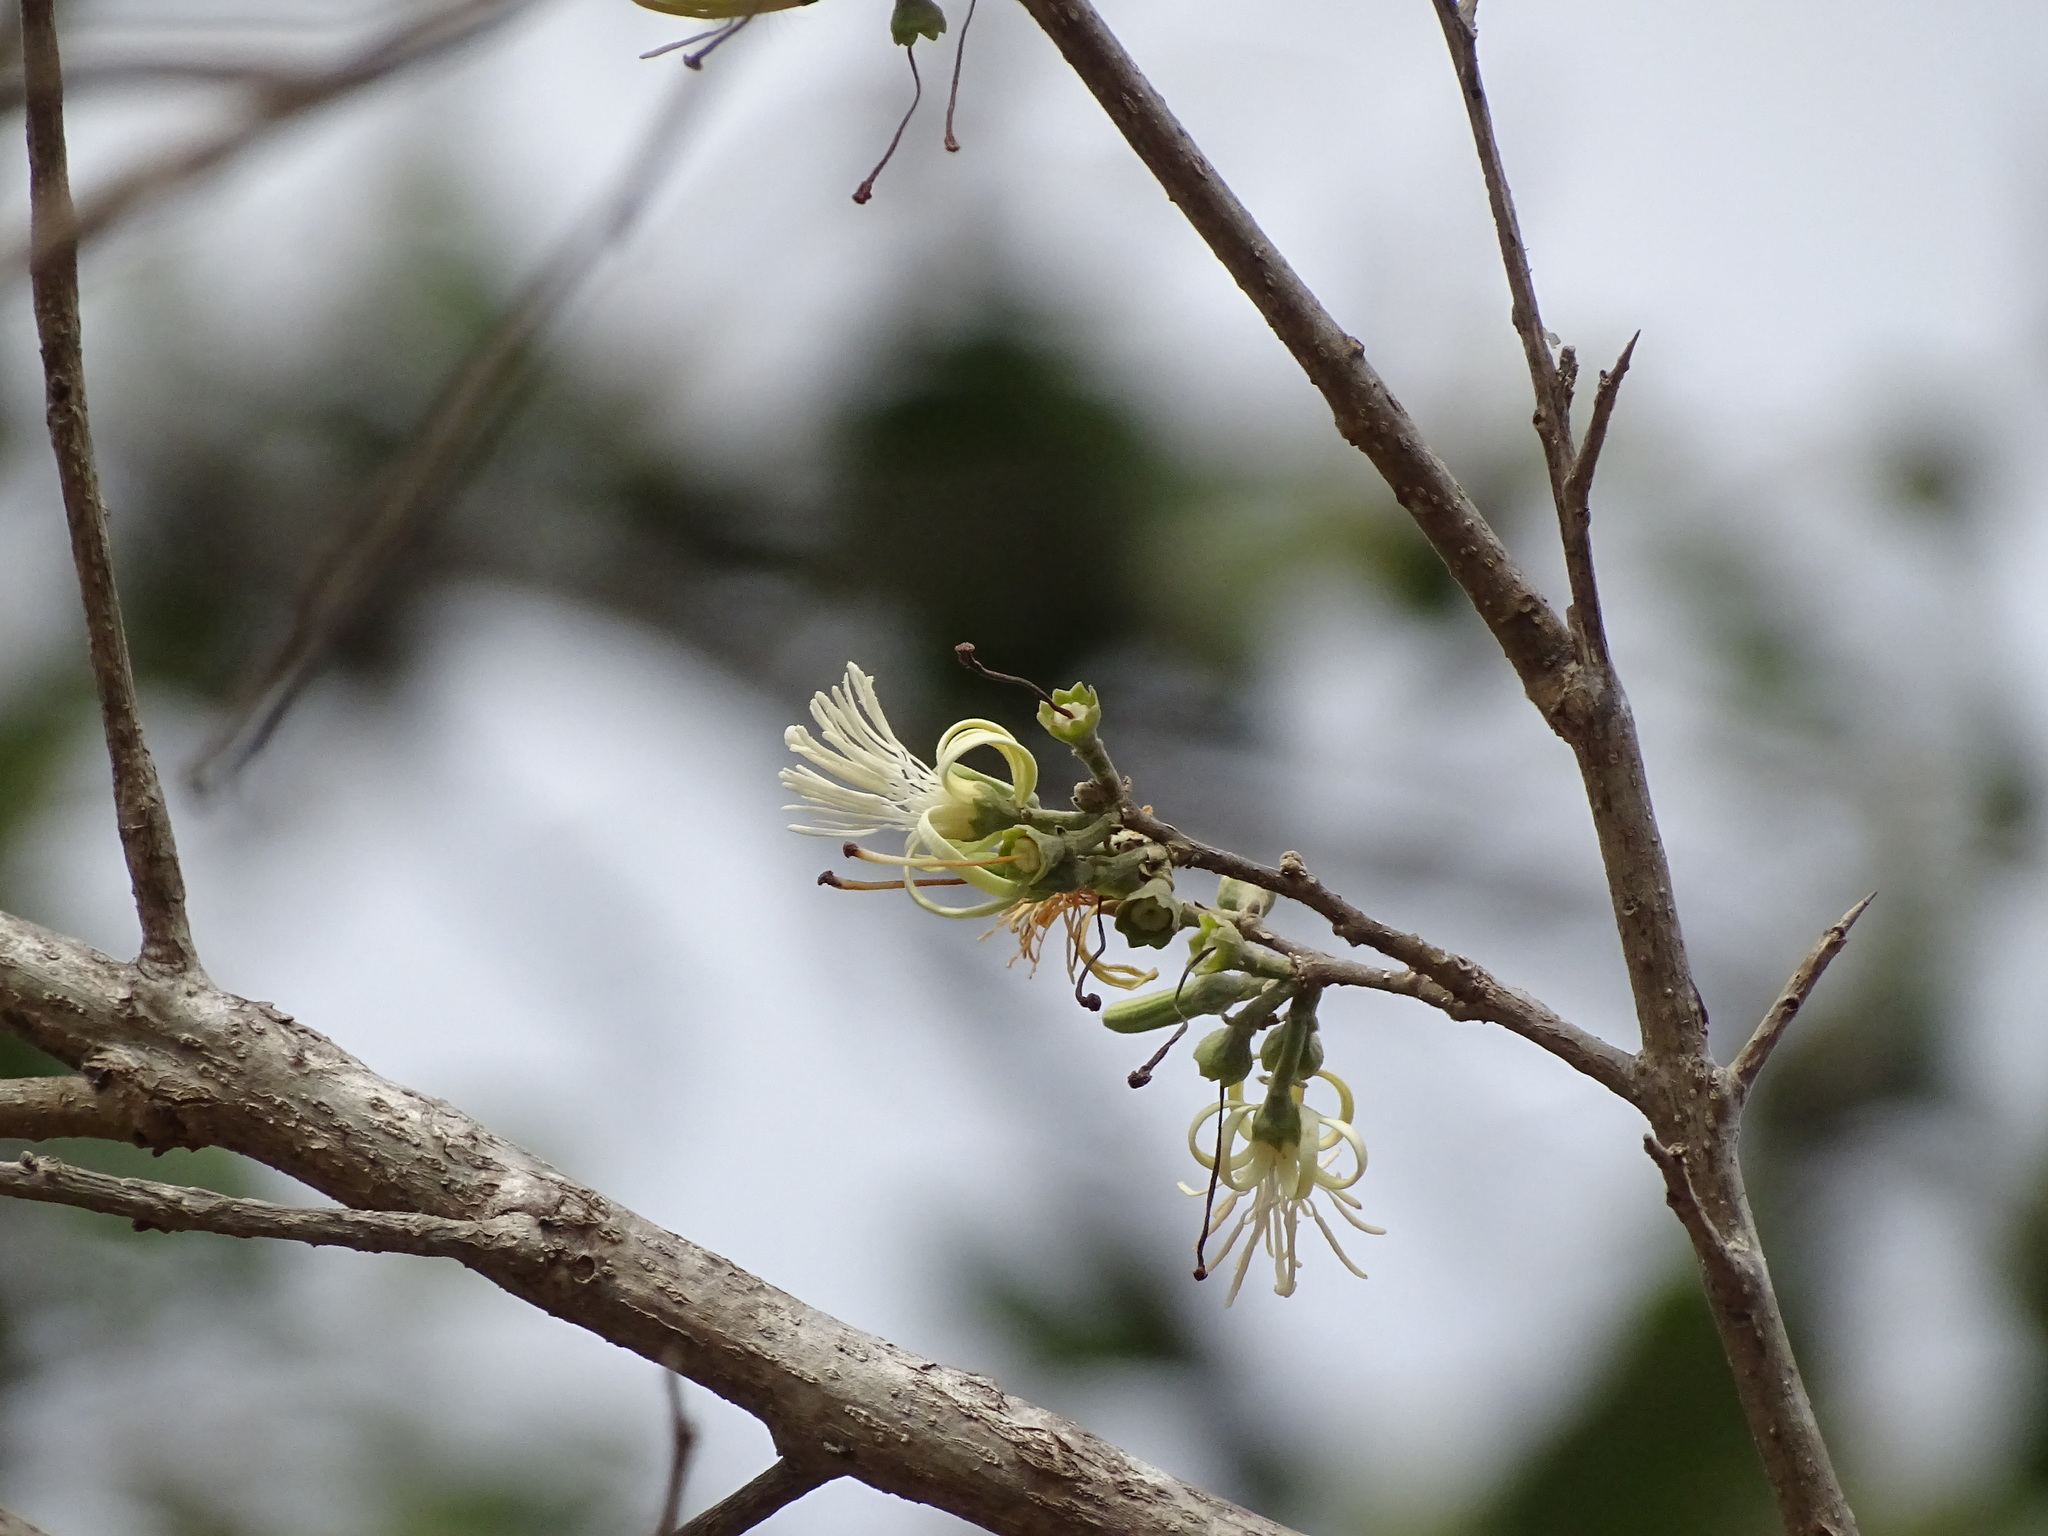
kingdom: Plantae
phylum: Tracheophyta
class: Magnoliopsida
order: Cornales
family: Cornaceae
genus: Alangium
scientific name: Alangium salviifolium
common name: Sage-leaf alangium
